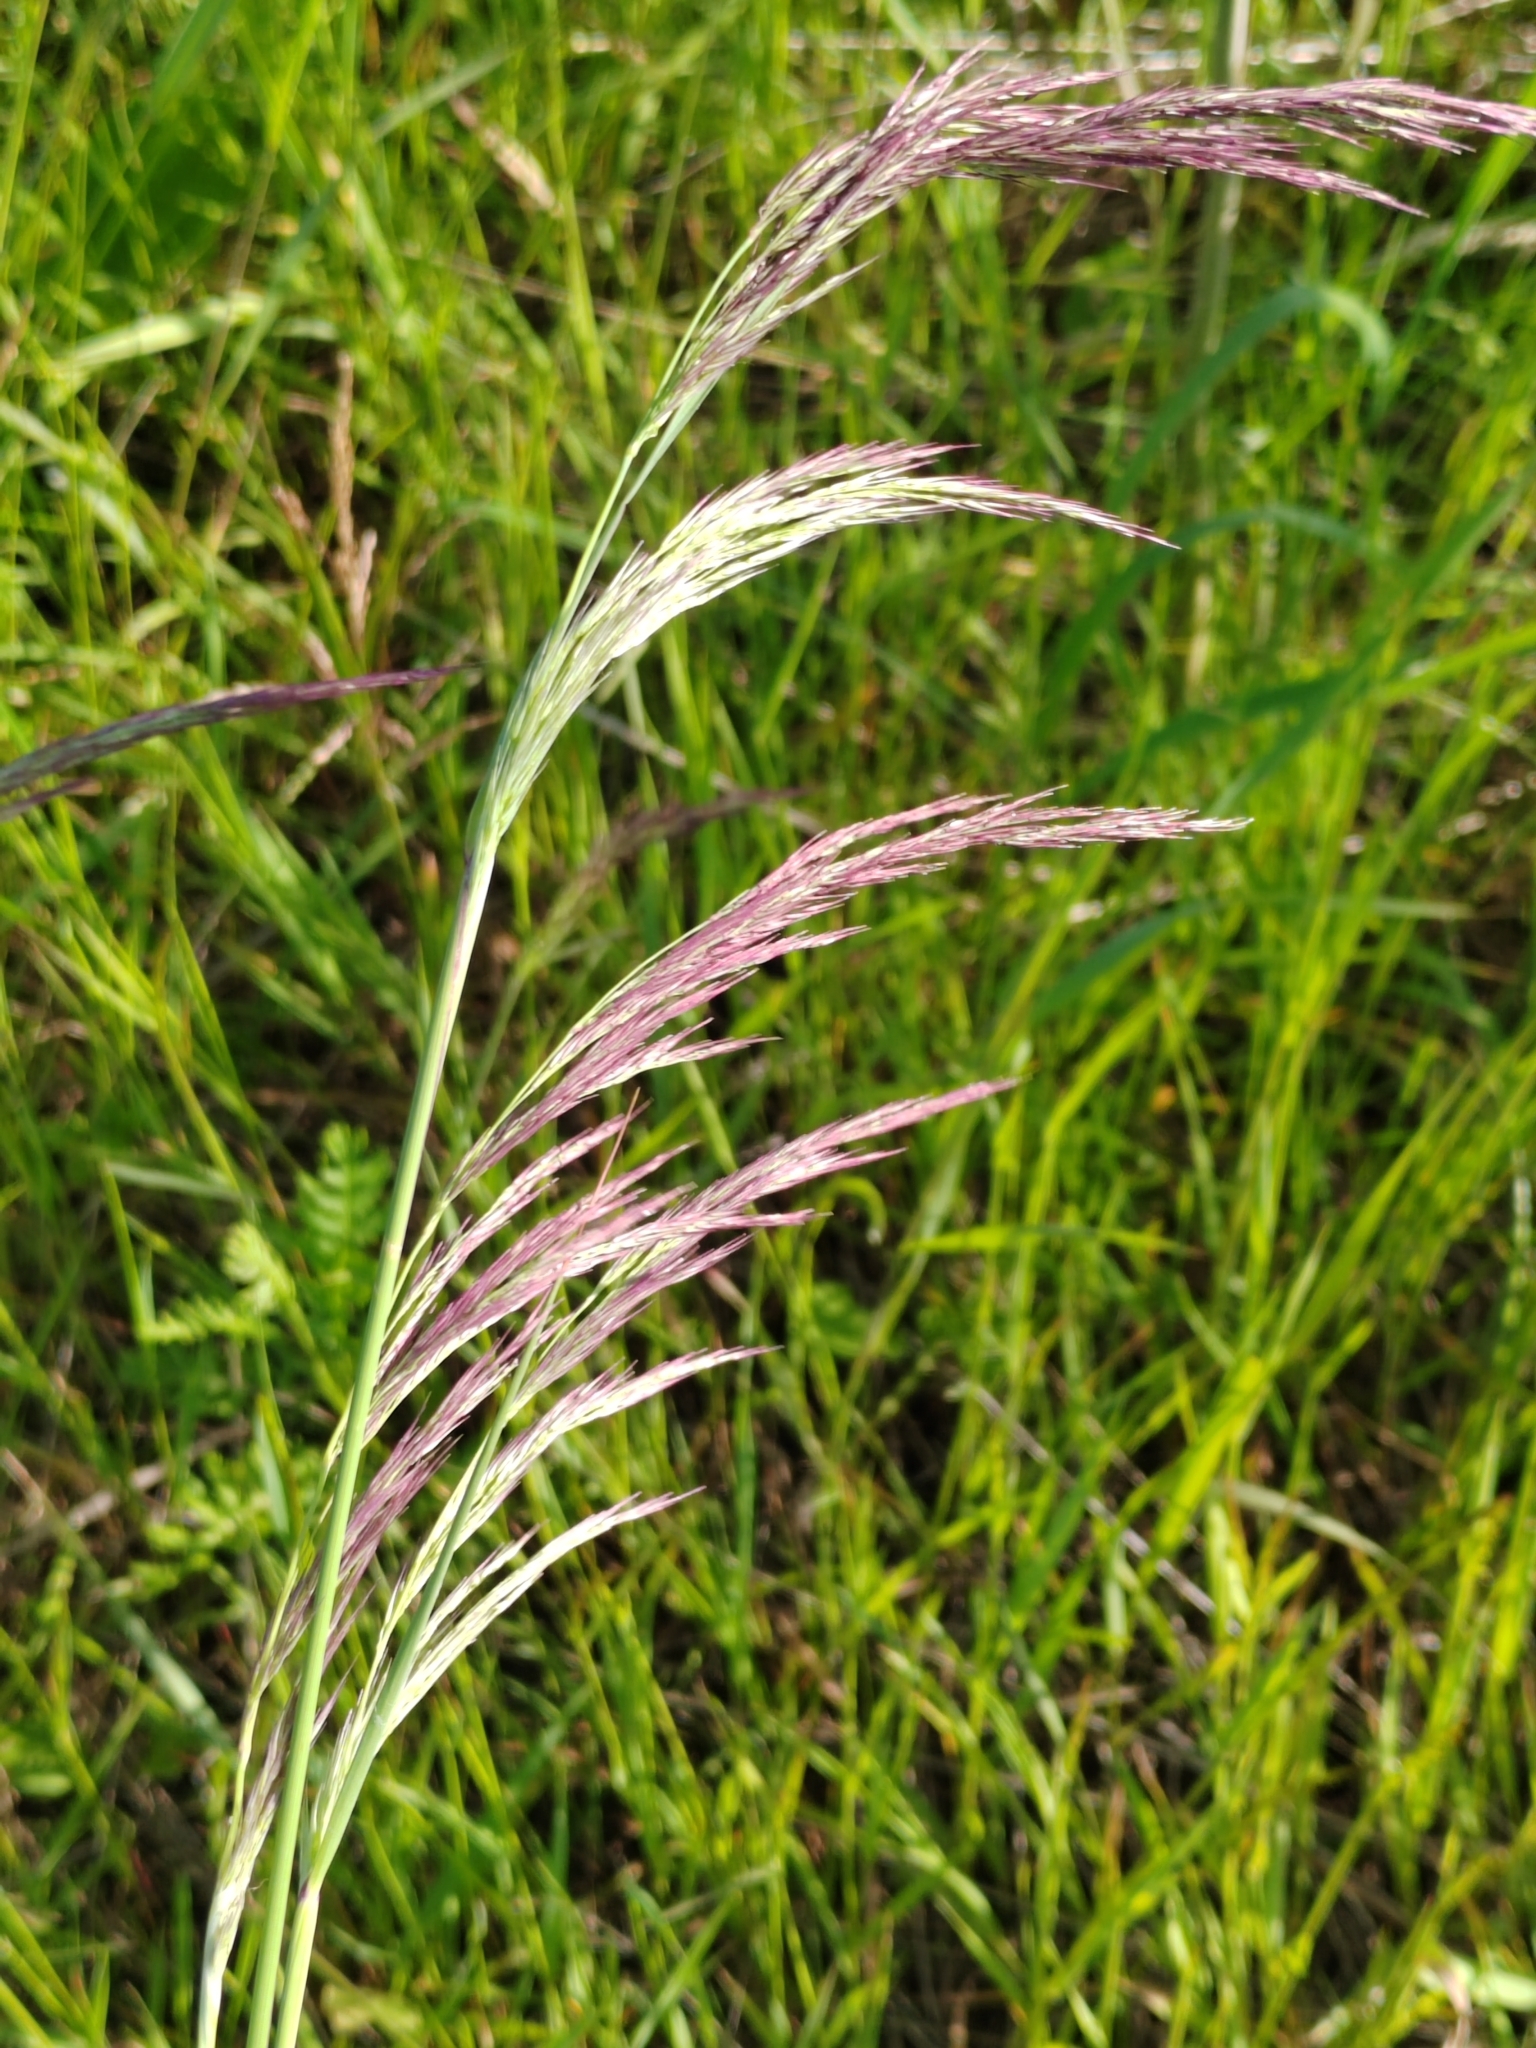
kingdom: Plantae
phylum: Tracheophyta
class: Liliopsida
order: Poales
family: Poaceae
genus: Calamagrostis
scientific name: Calamagrostis epigejos
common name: Wood small-reed
